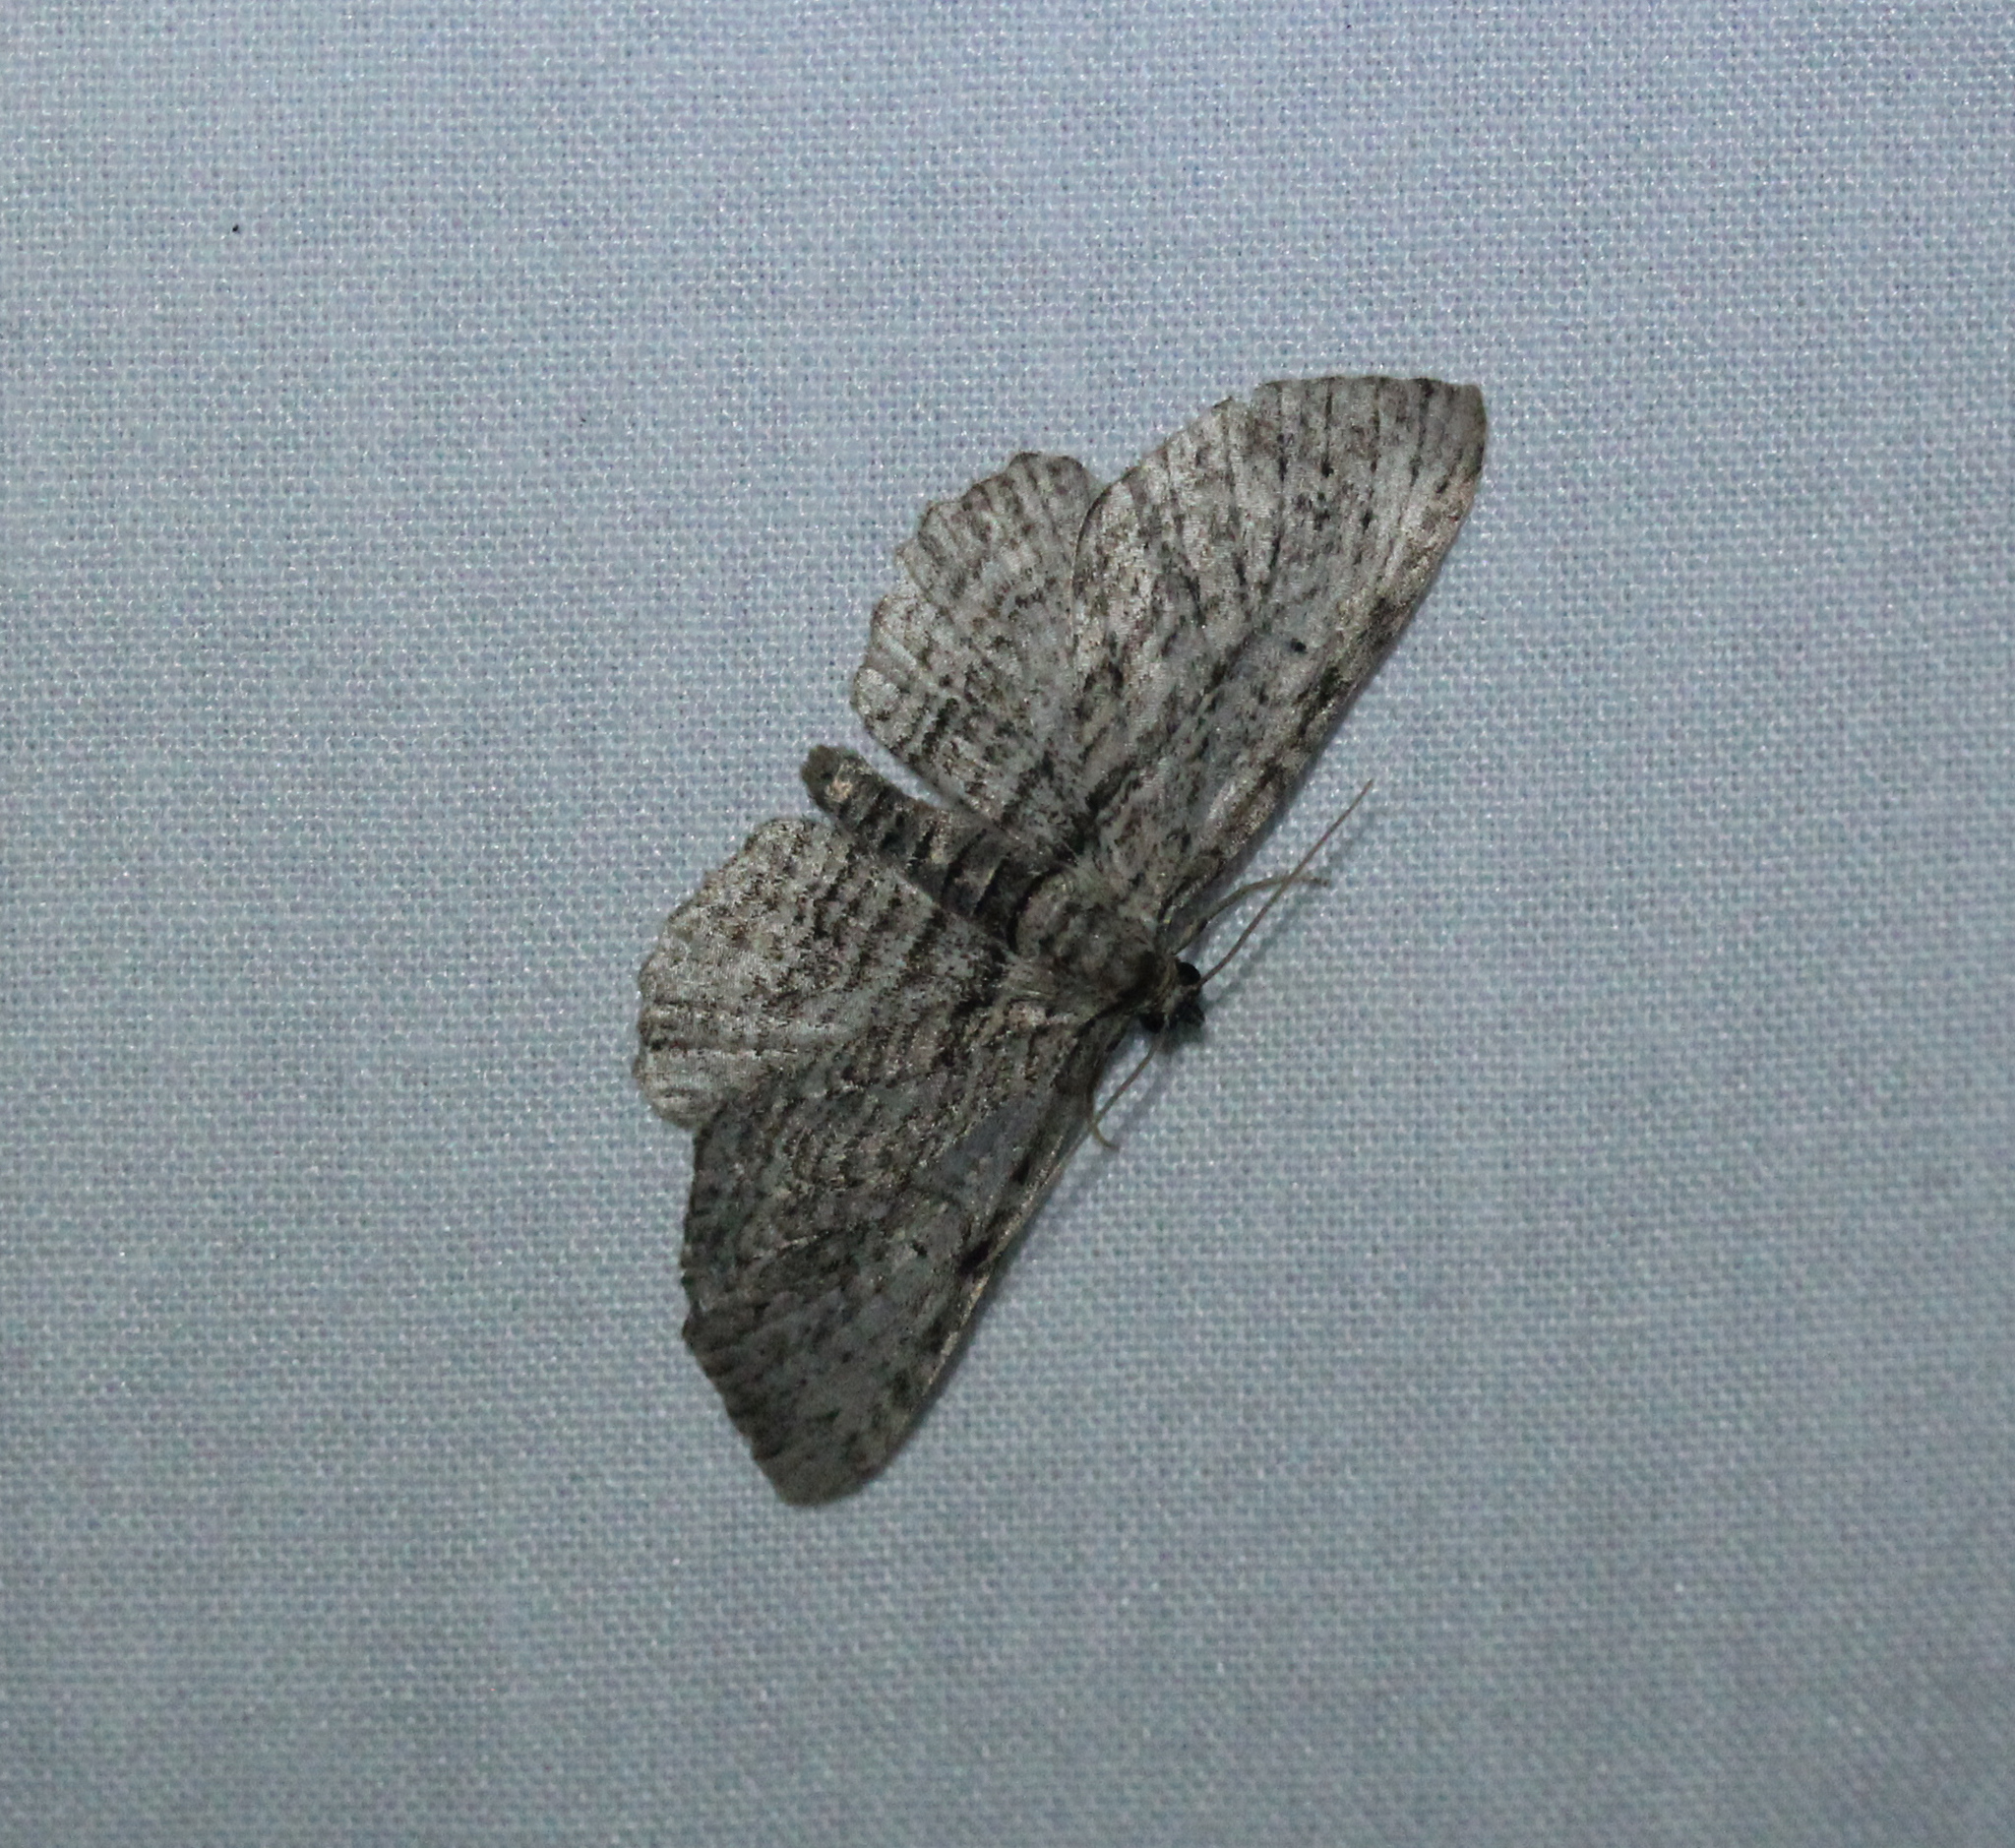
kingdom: Animalia
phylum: Arthropoda
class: Insecta
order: Lepidoptera
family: Geometridae
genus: Horisme
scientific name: Horisme intestinata
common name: Brown bark carpet
